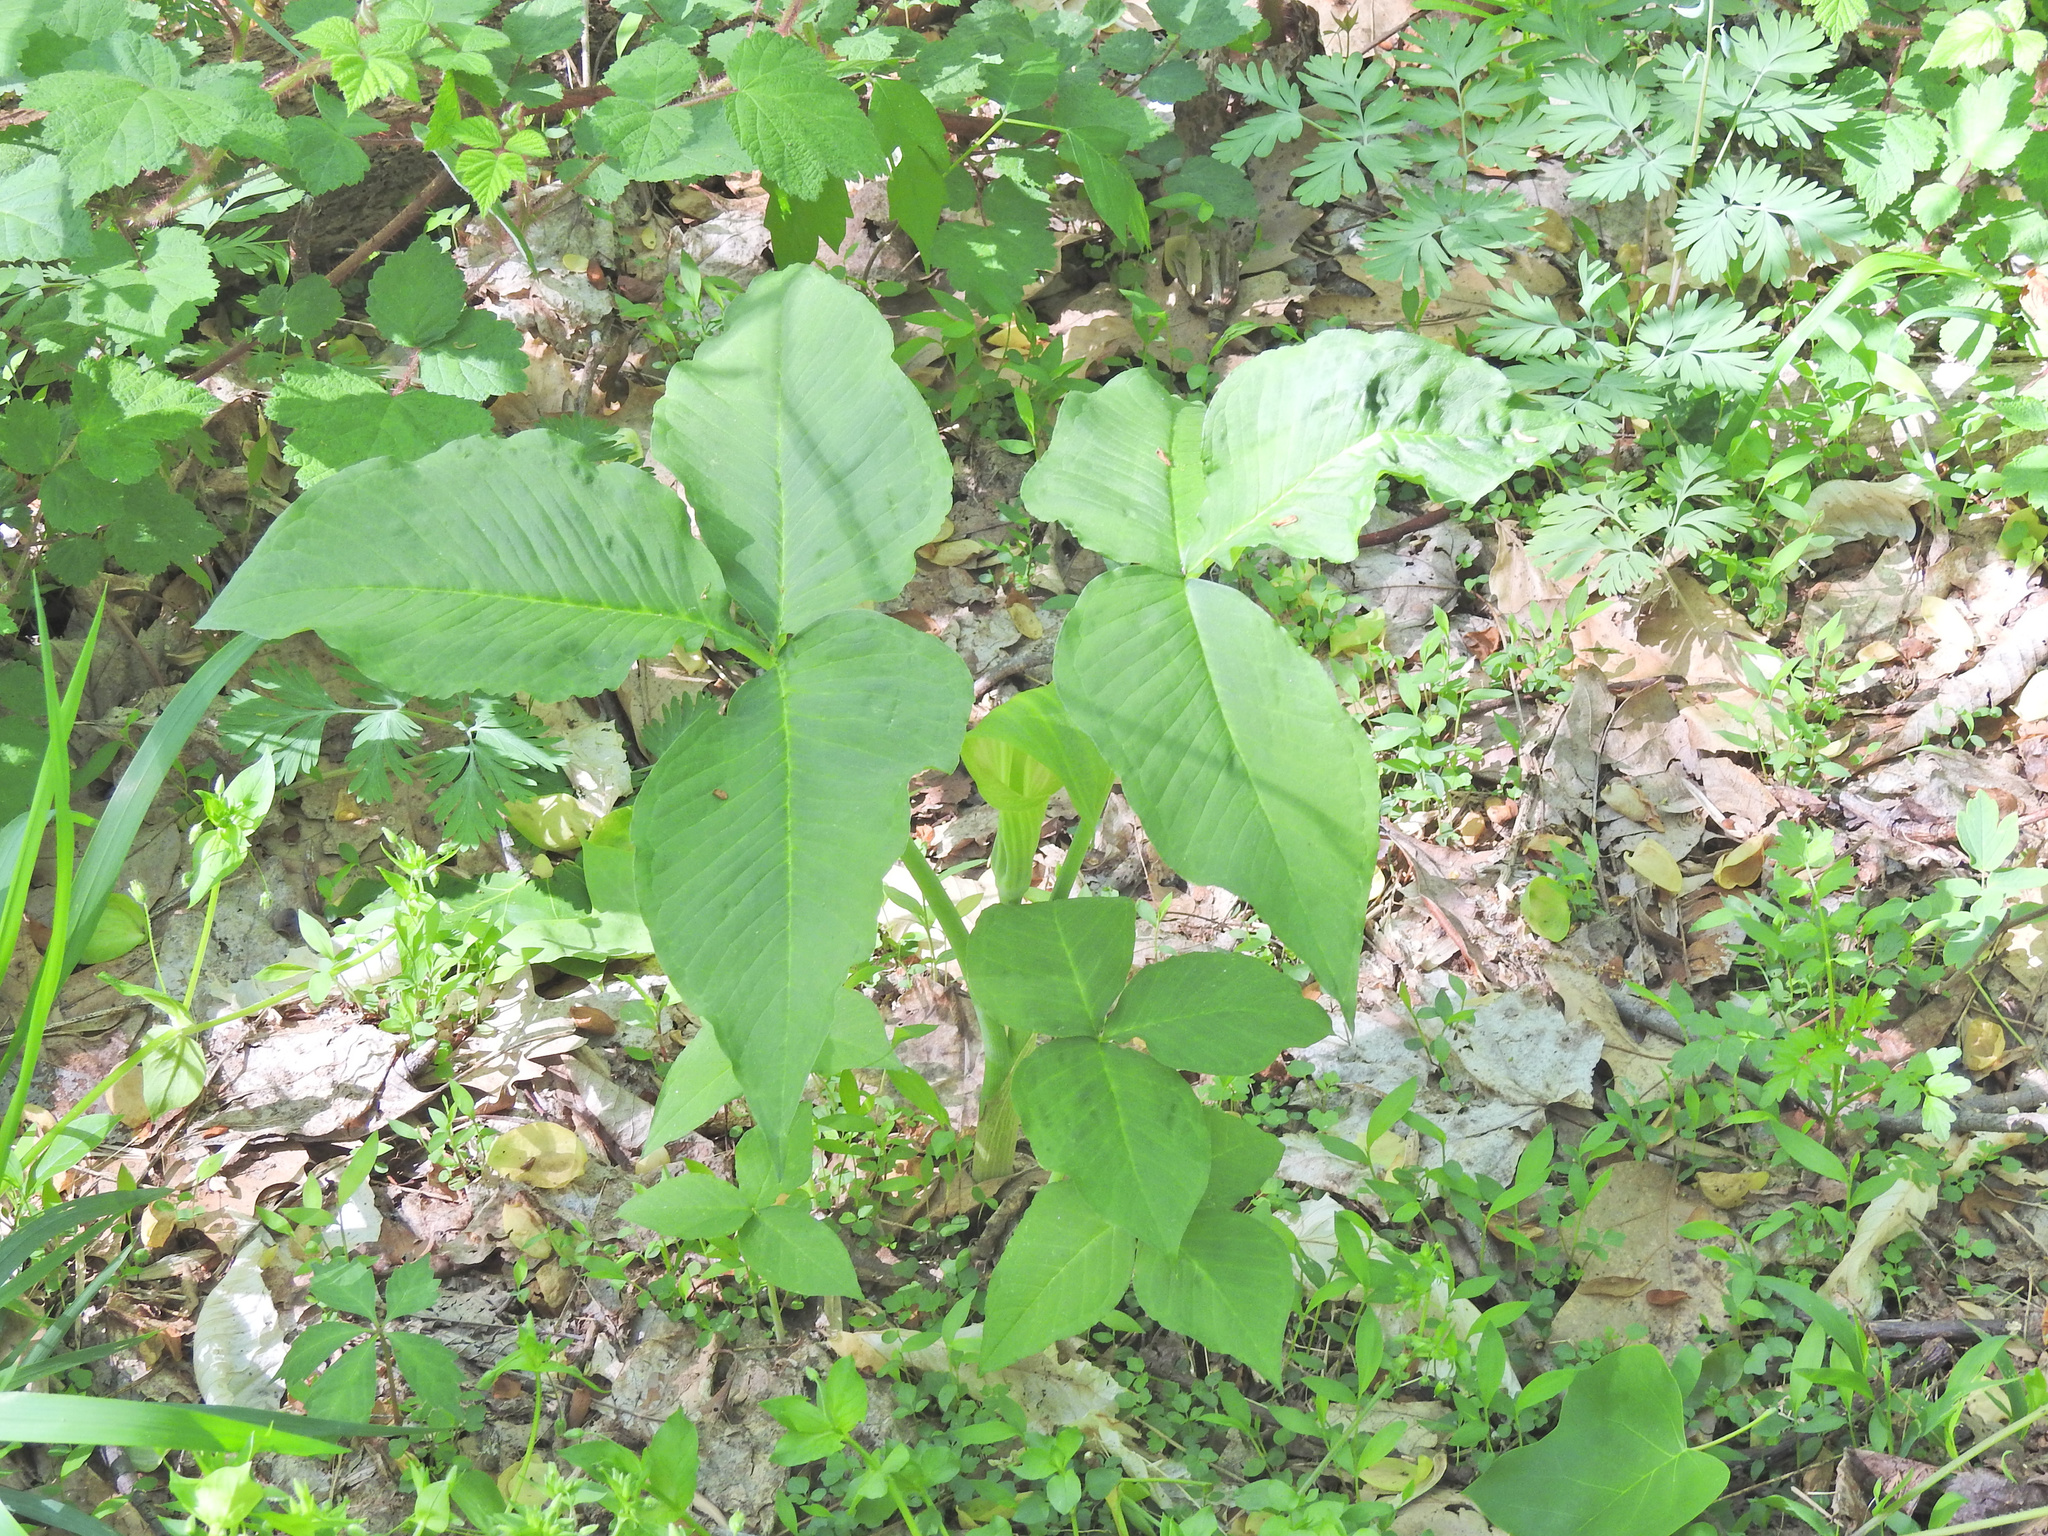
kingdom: Plantae
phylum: Tracheophyta
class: Liliopsida
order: Alismatales
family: Araceae
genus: Arisaema
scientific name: Arisaema triphyllum
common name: Jack-in-the-pulpit
